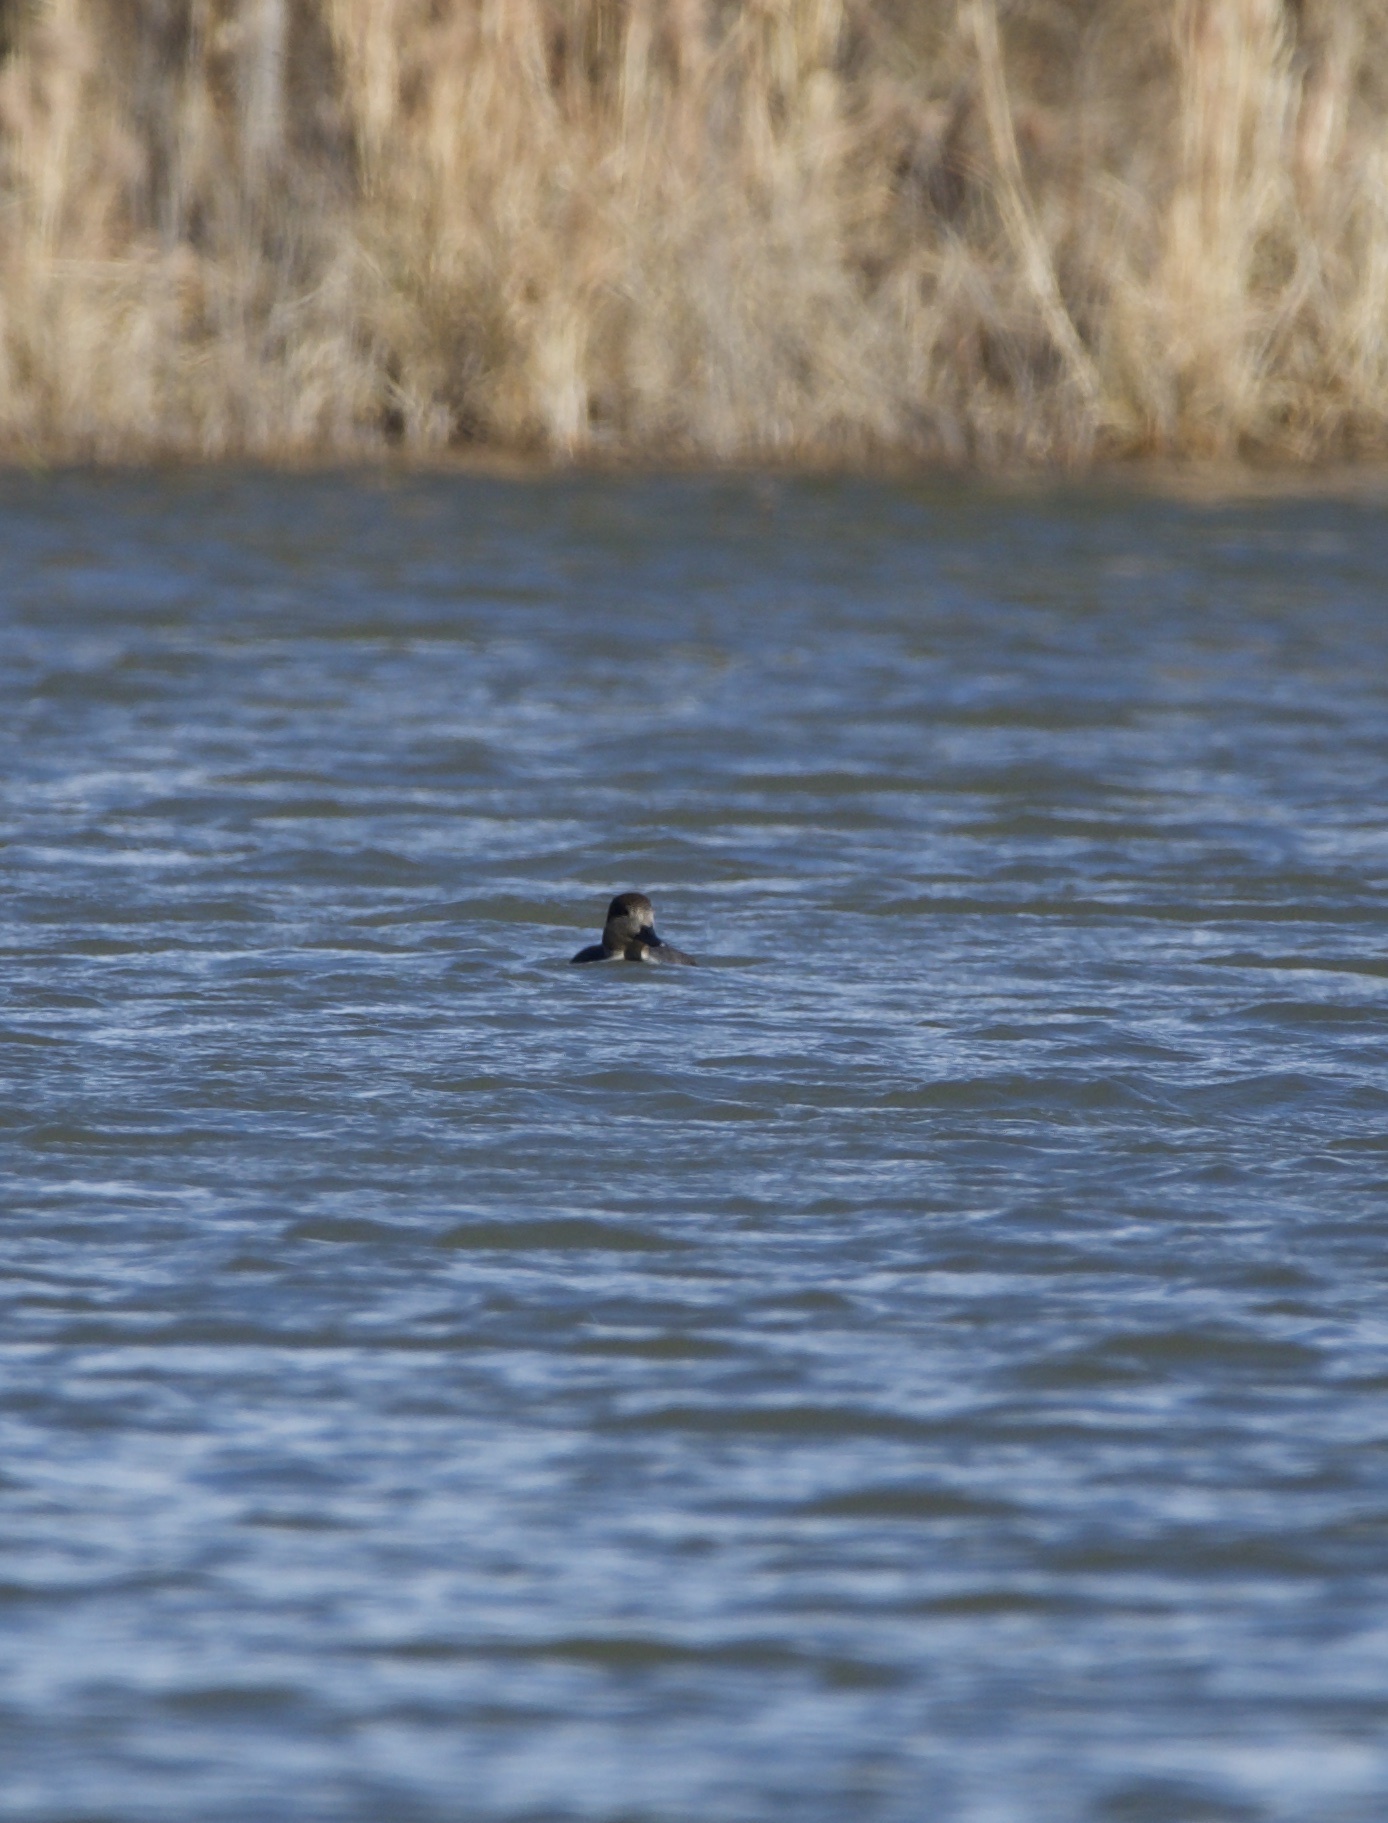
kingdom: Animalia
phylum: Chordata
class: Aves
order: Anseriformes
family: Anatidae
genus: Mareca
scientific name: Mareca strepera
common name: Gadwall
